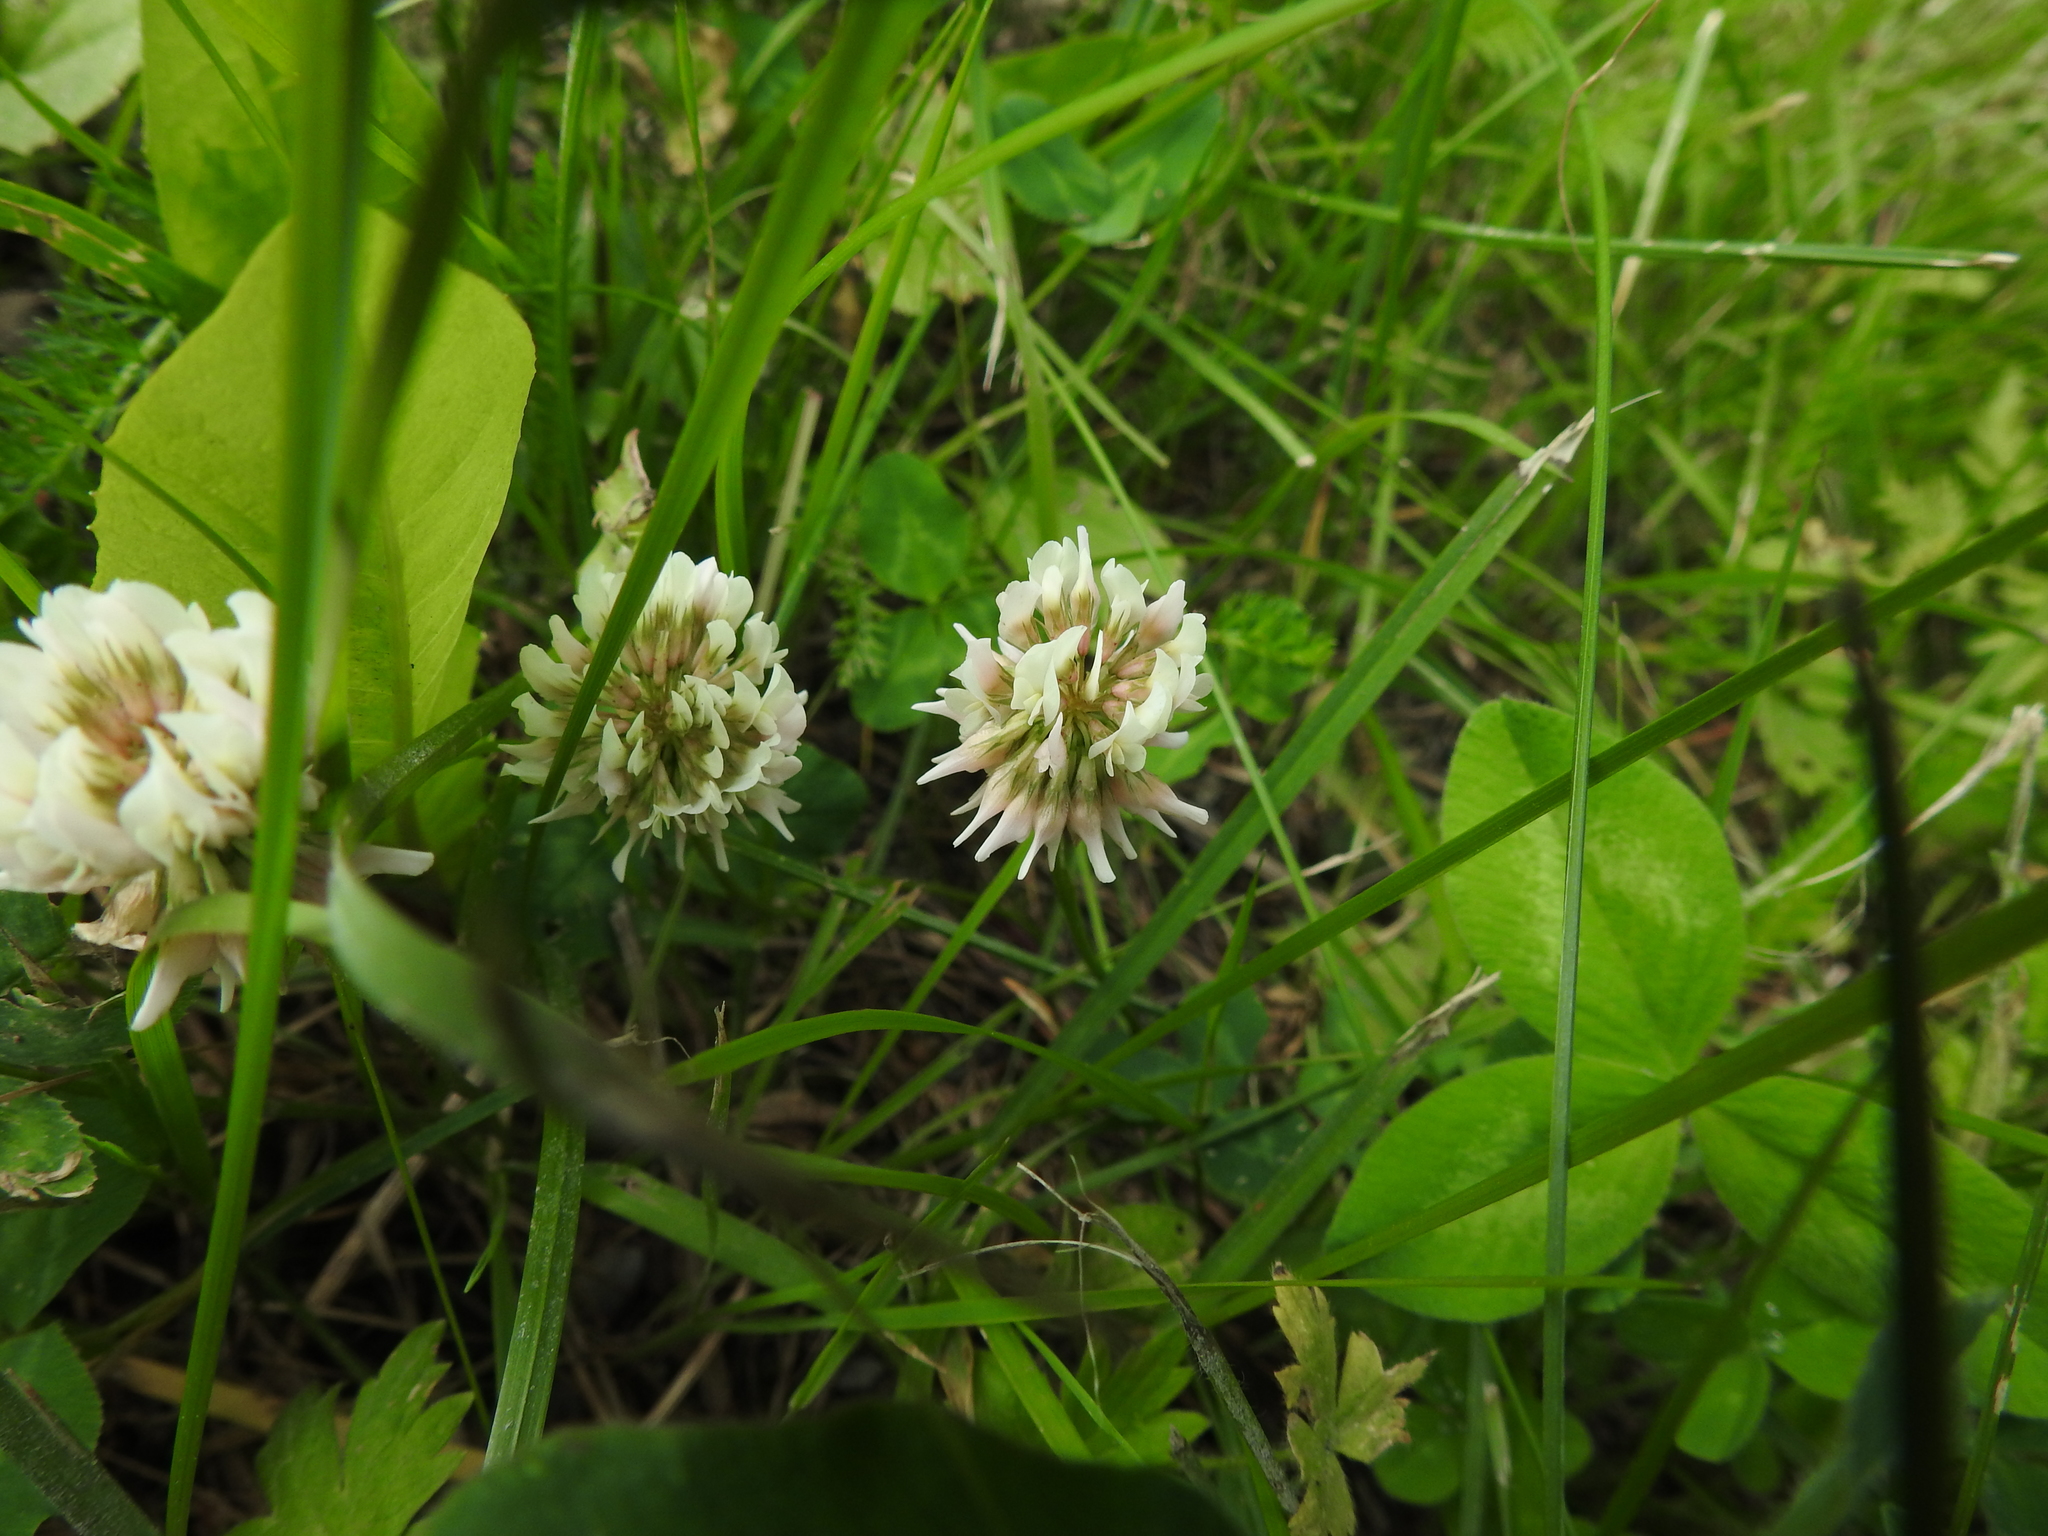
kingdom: Plantae
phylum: Tracheophyta
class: Magnoliopsida
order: Fabales
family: Fabaceae
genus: Trifolium
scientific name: Trifolium repens
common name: White clover
